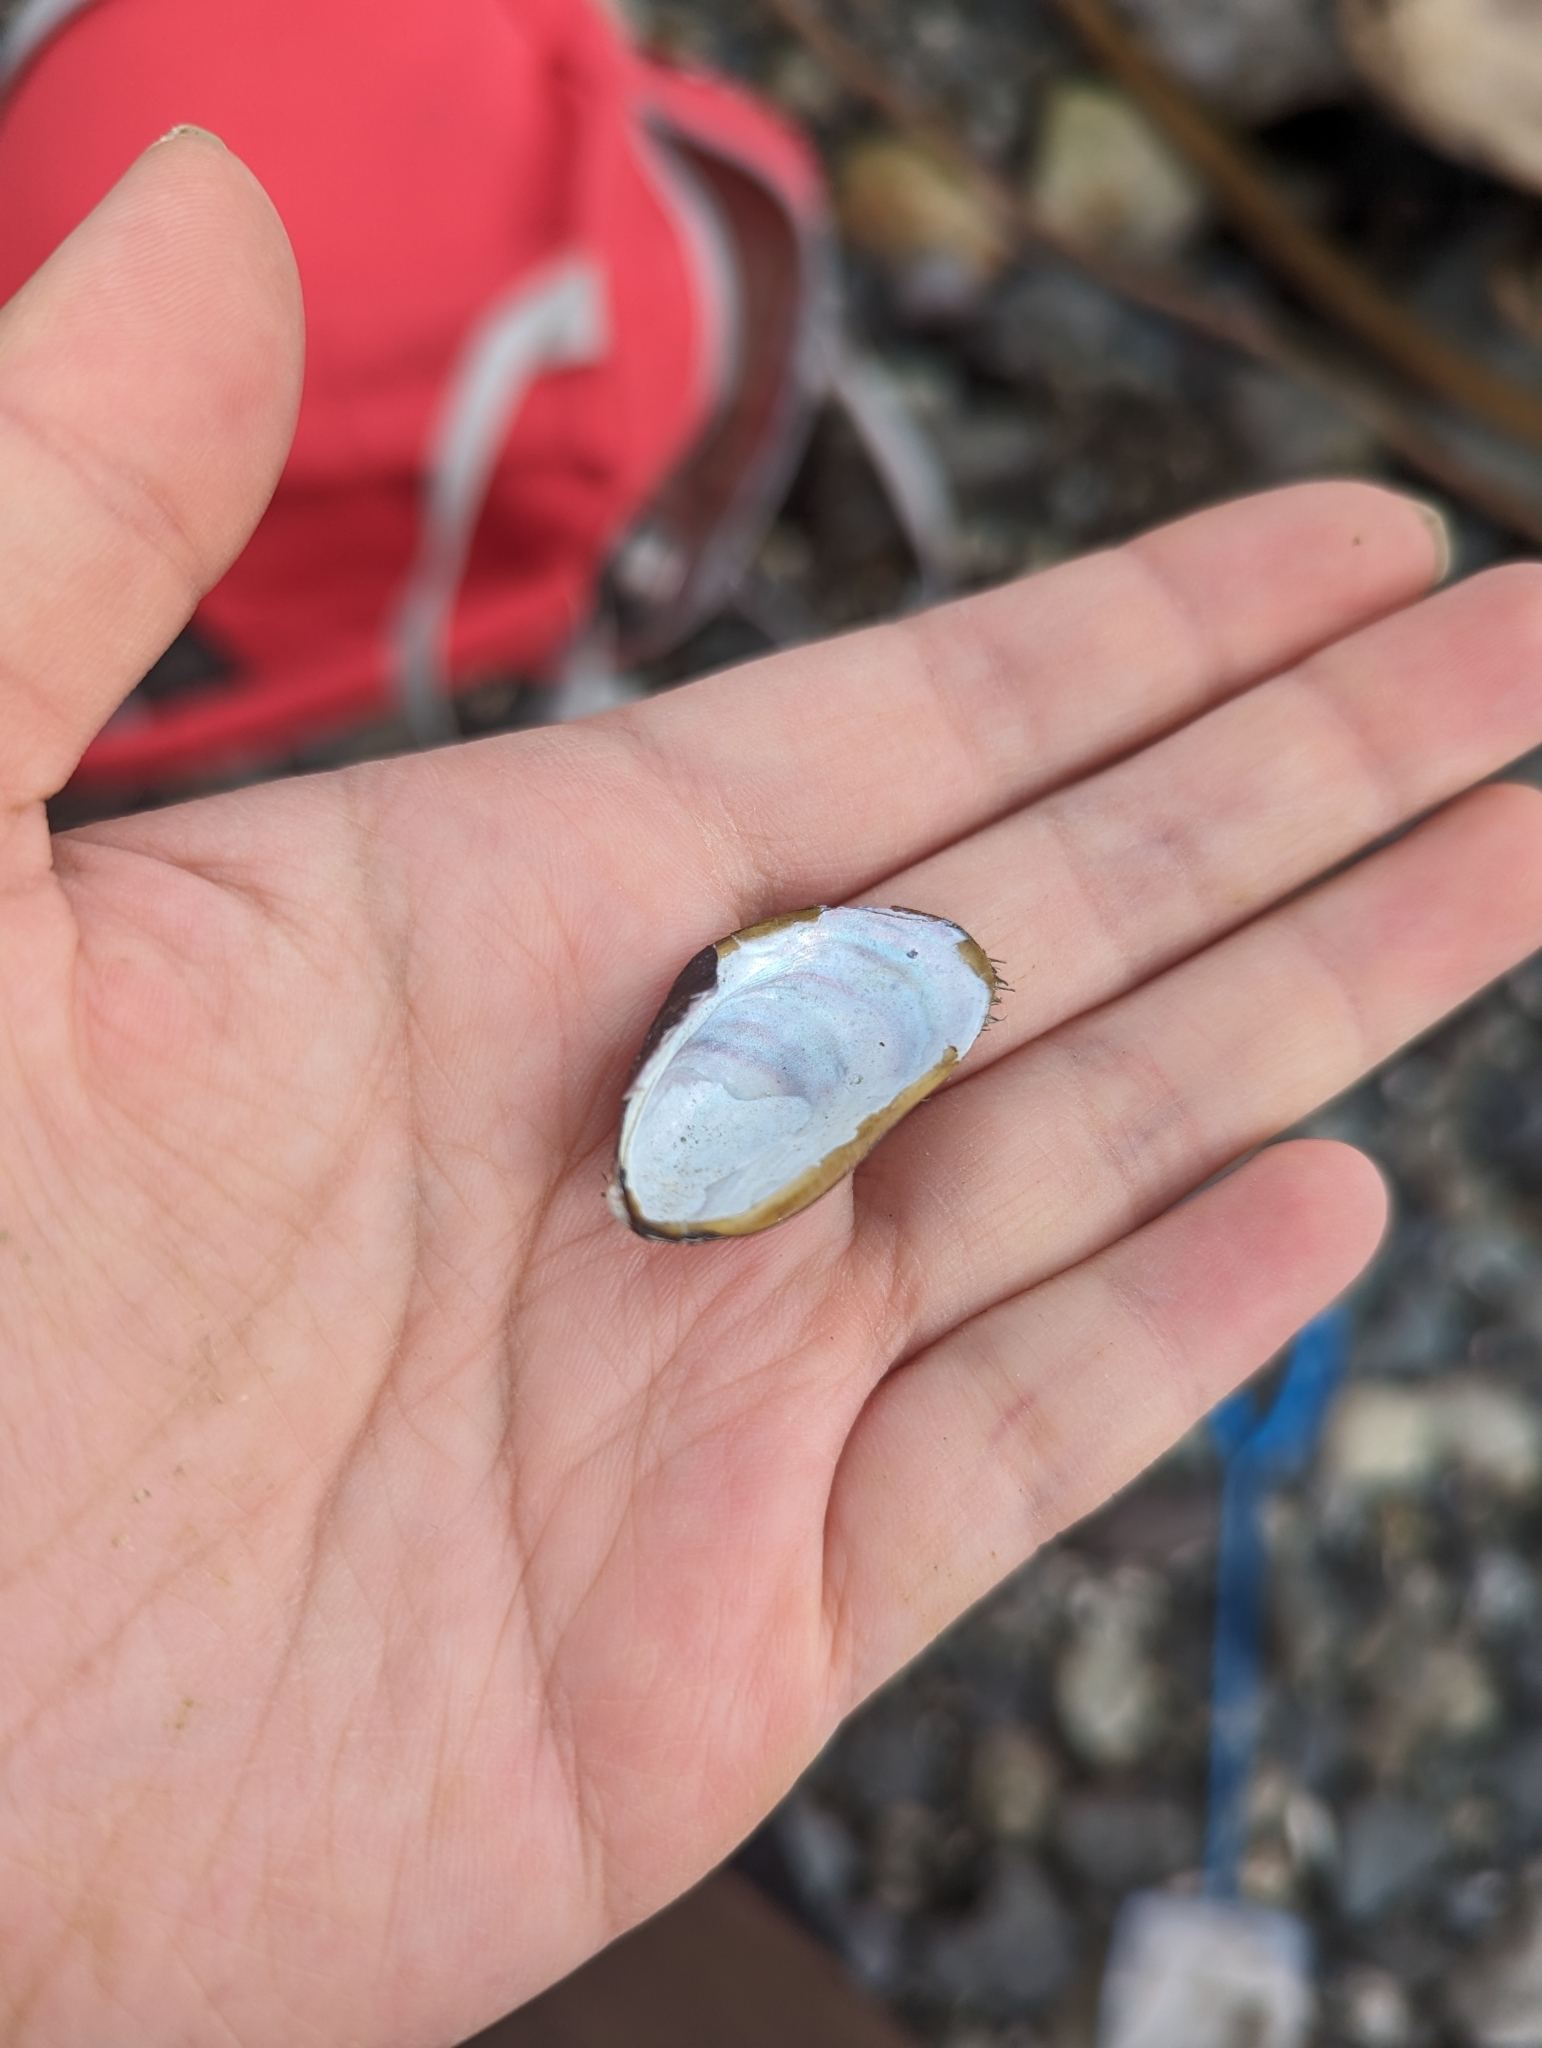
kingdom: Animalia
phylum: Mollusca
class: Bivalvia
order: Mytilida
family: Mytilidae
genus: Modiolus
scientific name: Modiolus modiolus
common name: Horse-mussel
